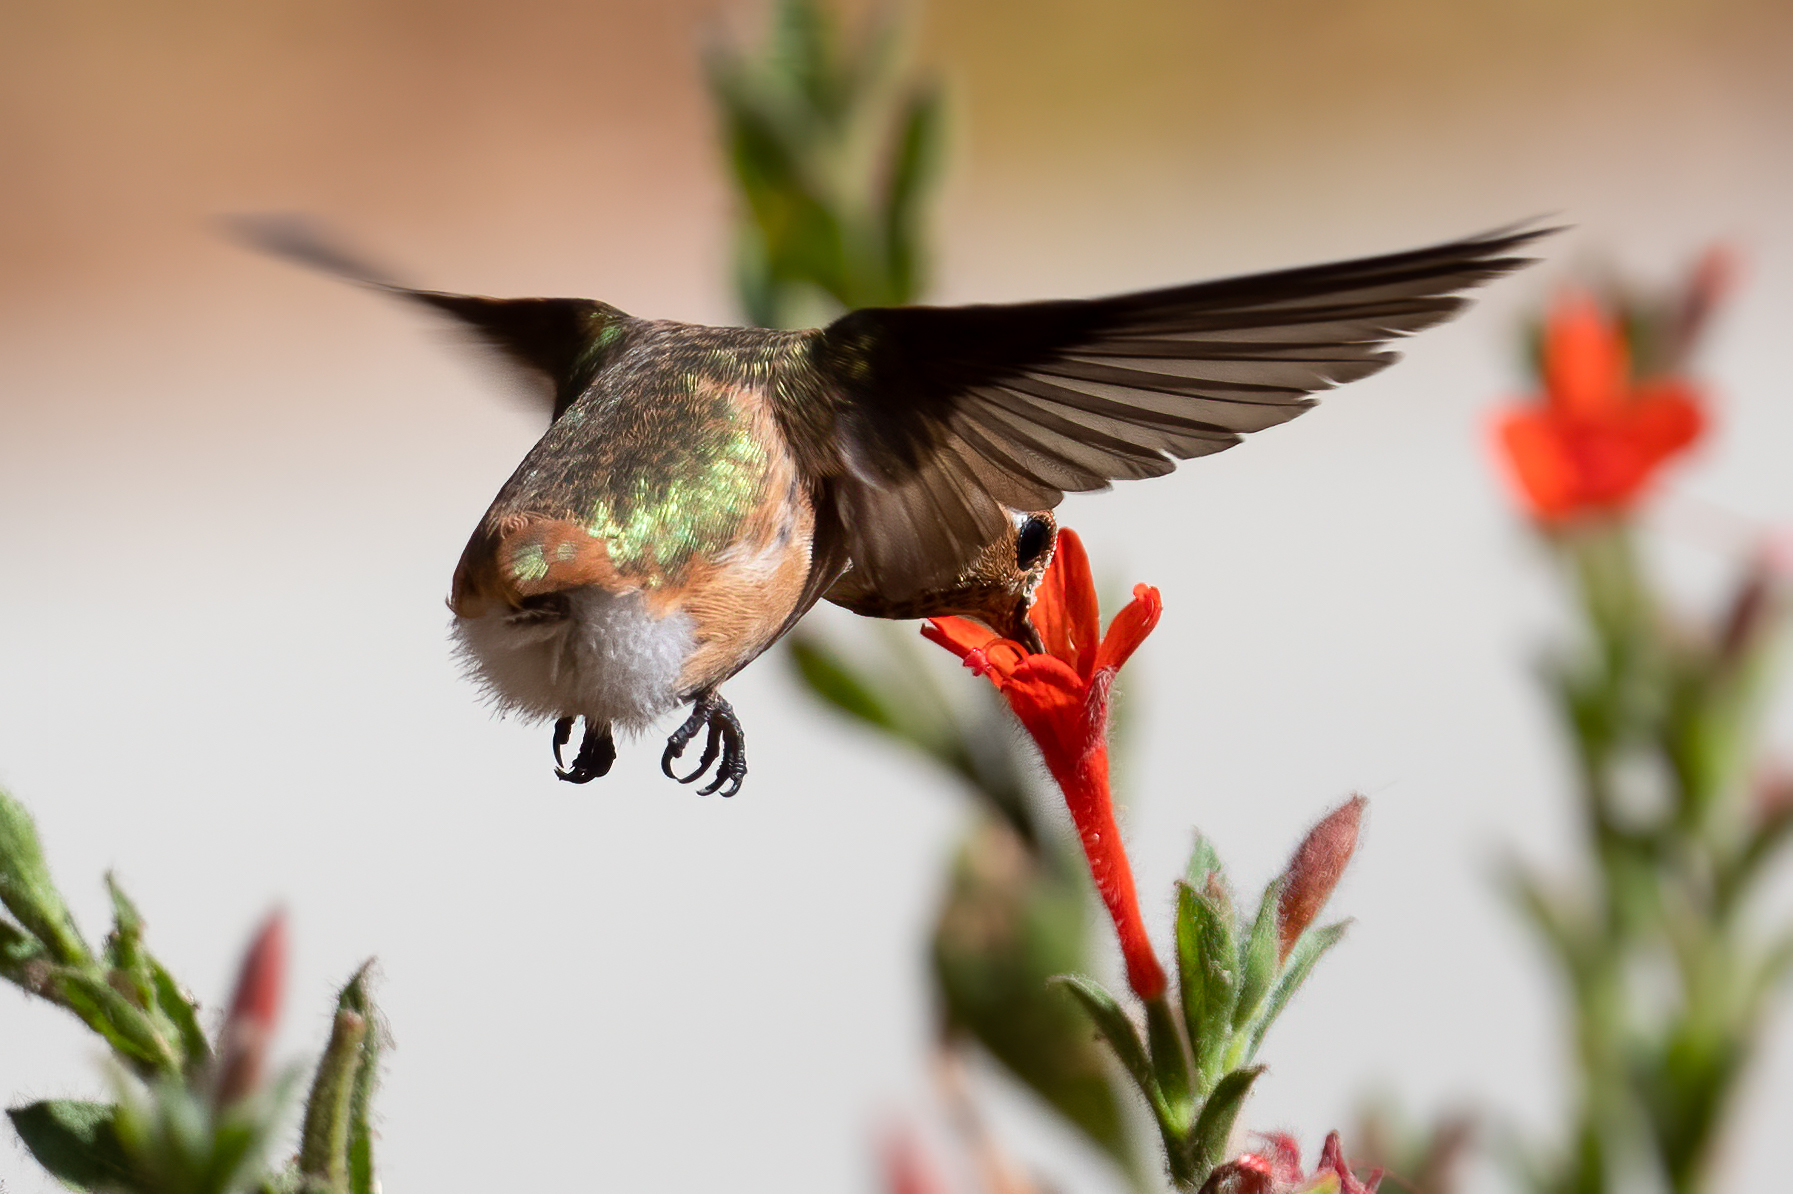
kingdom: Animalia
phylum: Chordata
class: Aves
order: Apodiformes
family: Trochilidae
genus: Selasphorus
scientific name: Selasphorus rufus
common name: Rufous hummingbird
